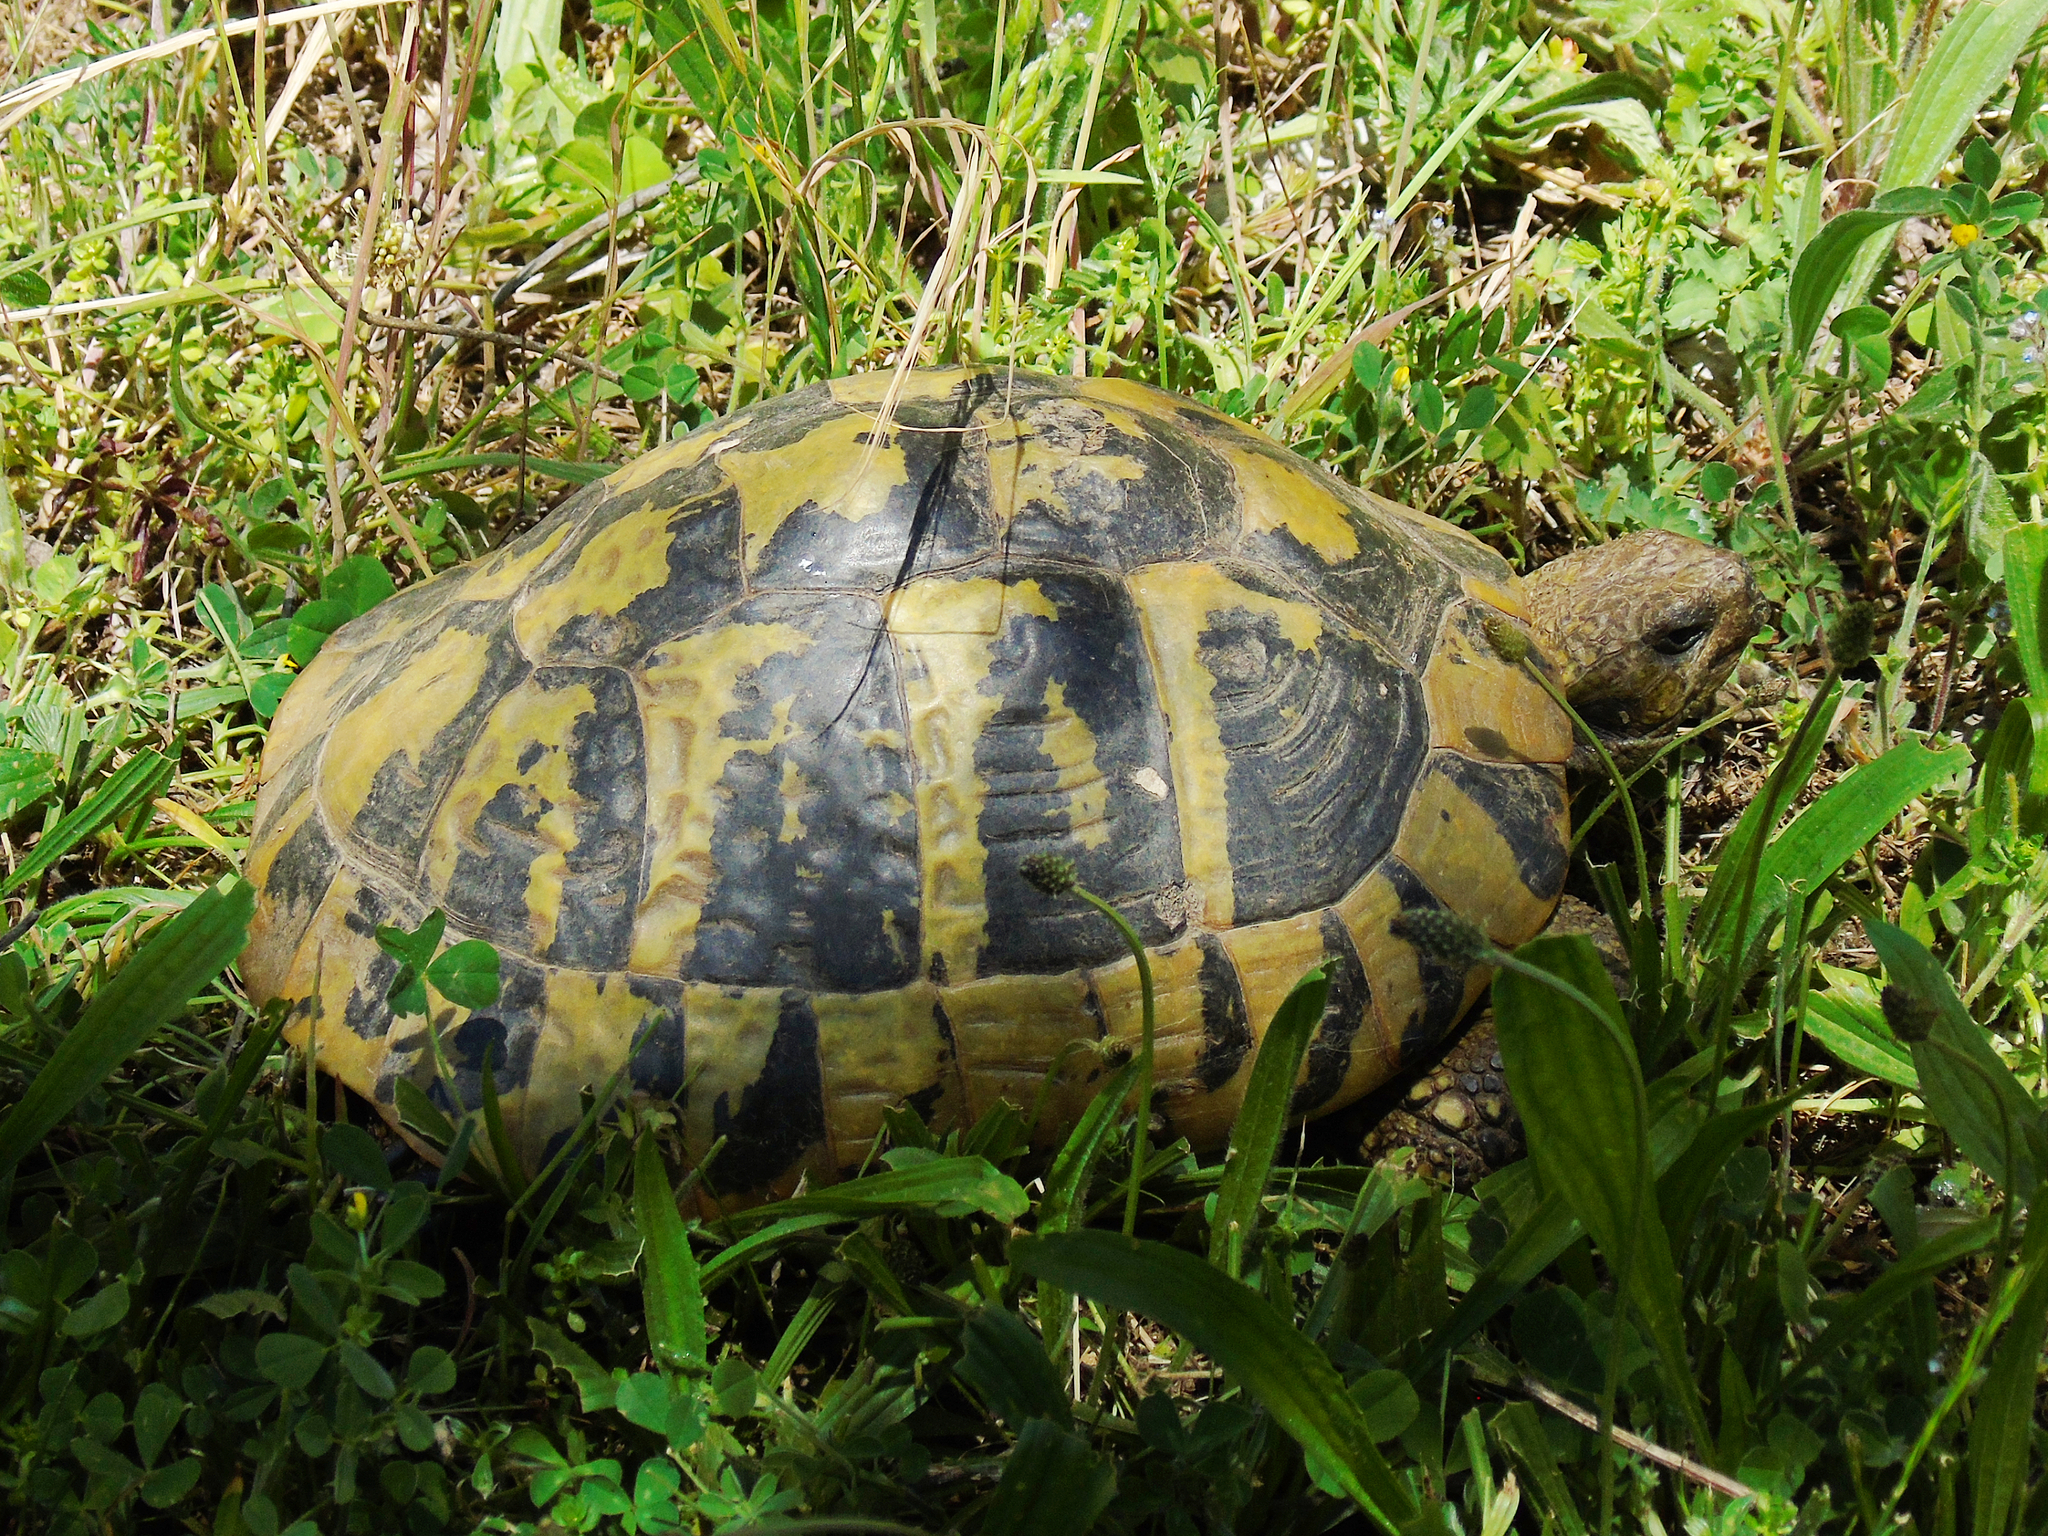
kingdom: Animalia
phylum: Chordata
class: Testudines
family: Testudinidae
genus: Testudo
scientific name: Testudo hermanni
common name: Hermann's tortoise
